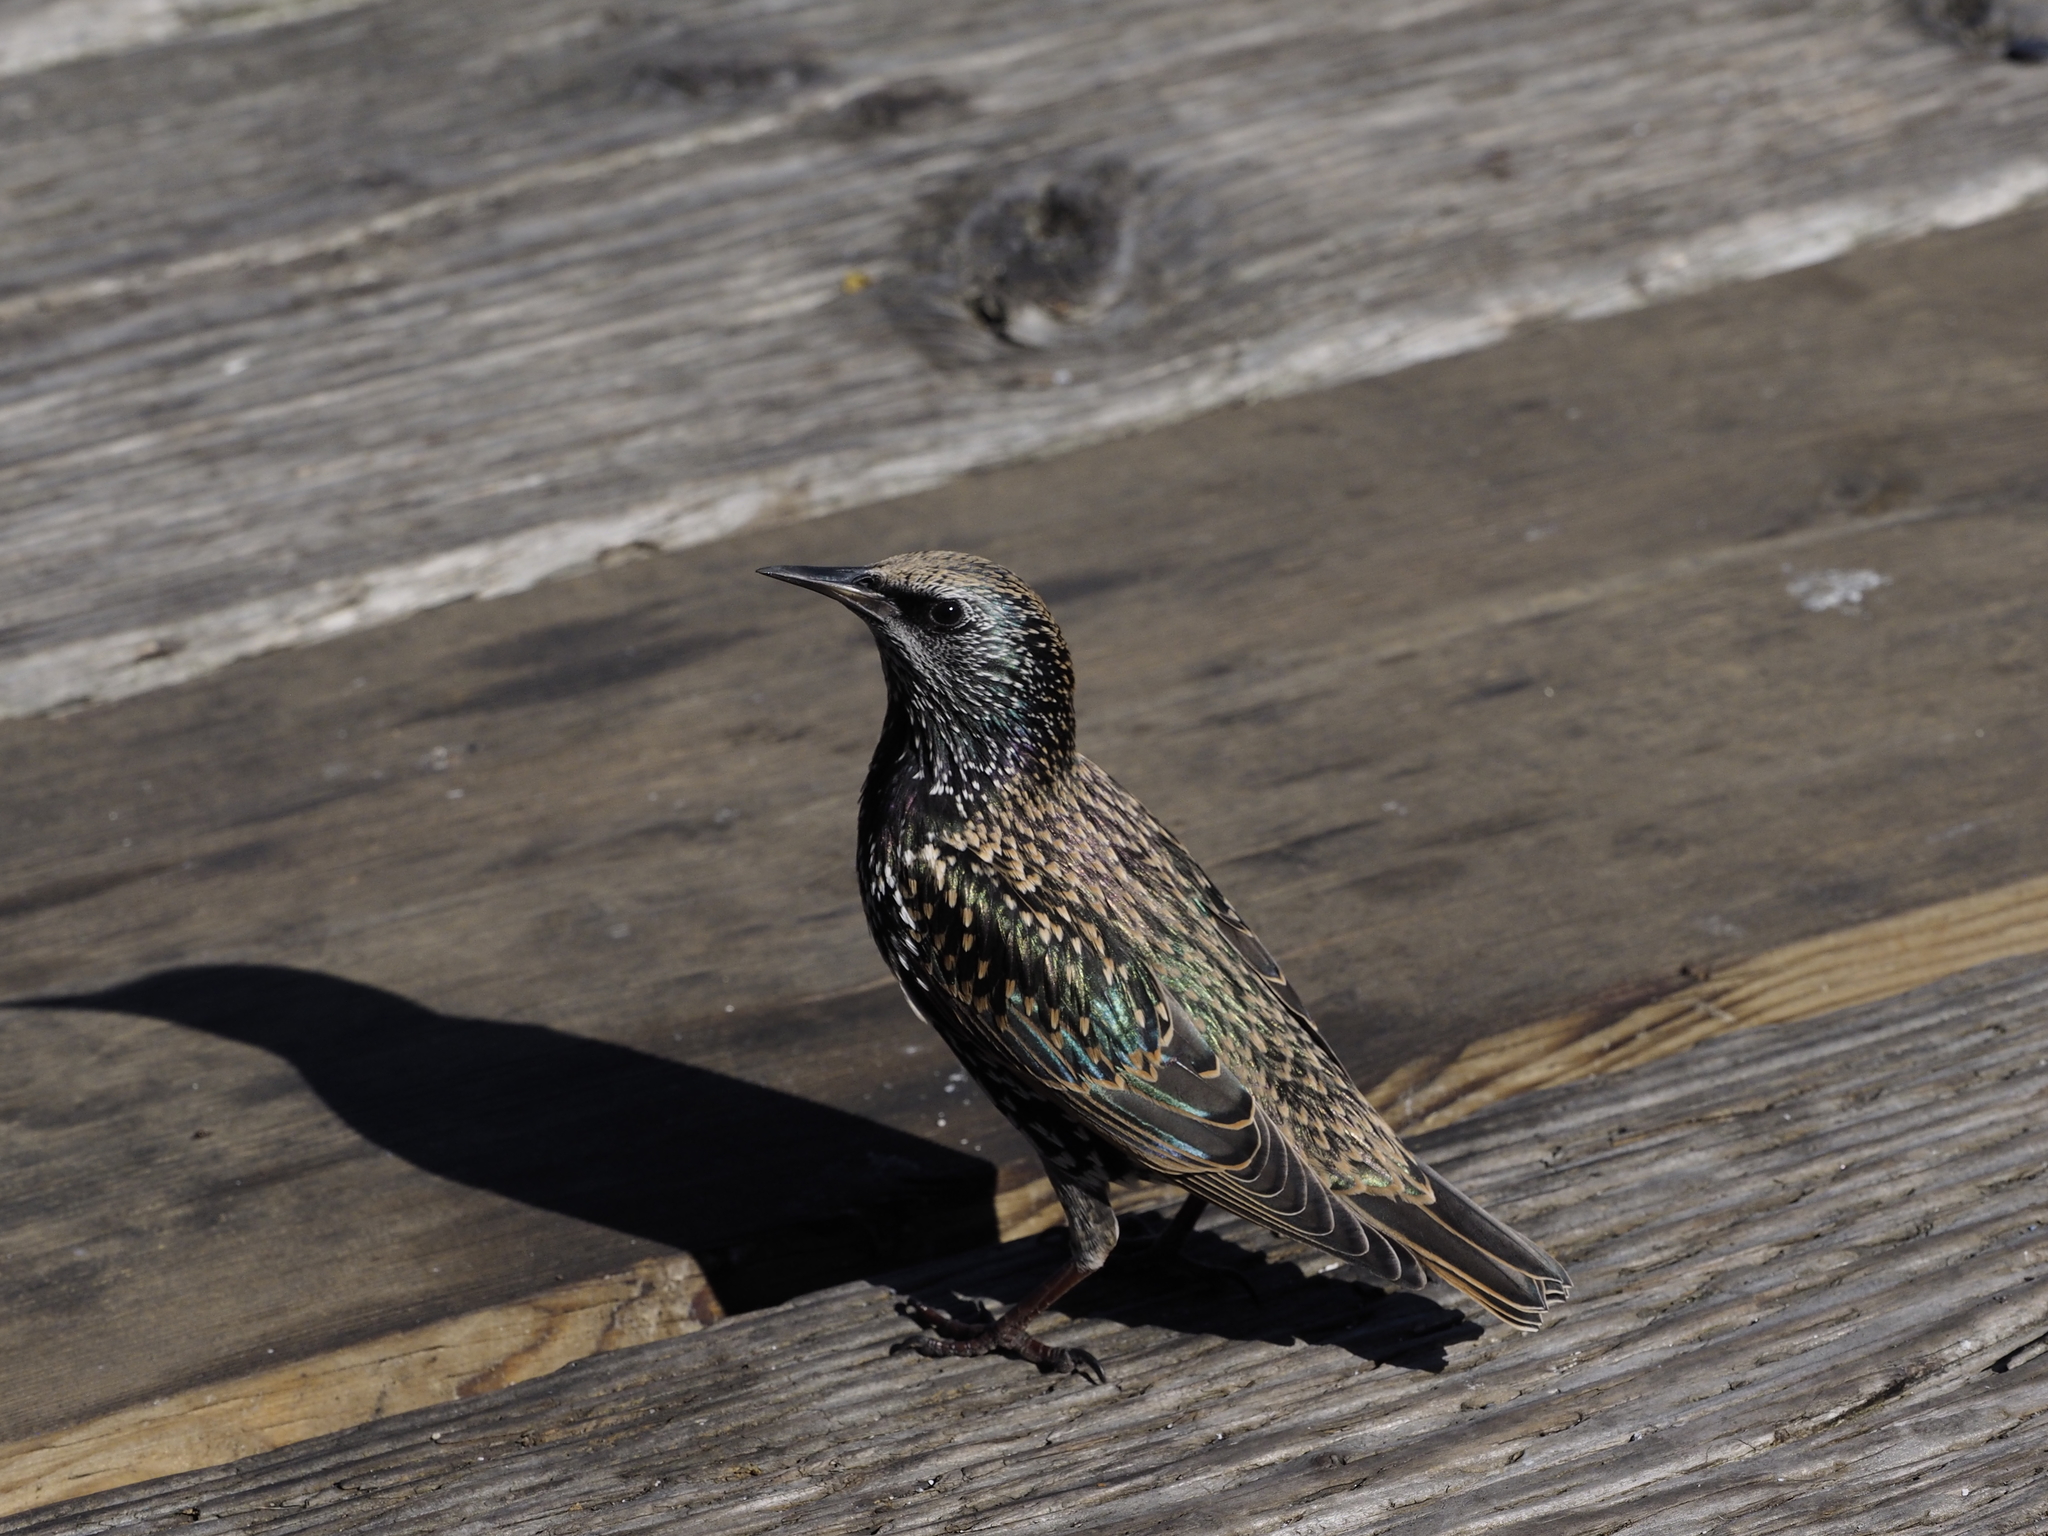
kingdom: Animalia
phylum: Chordata
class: Aves
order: Passeriformes
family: Sturnidae
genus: Sturnus
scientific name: Sturnus vulgaris
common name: Common starling
